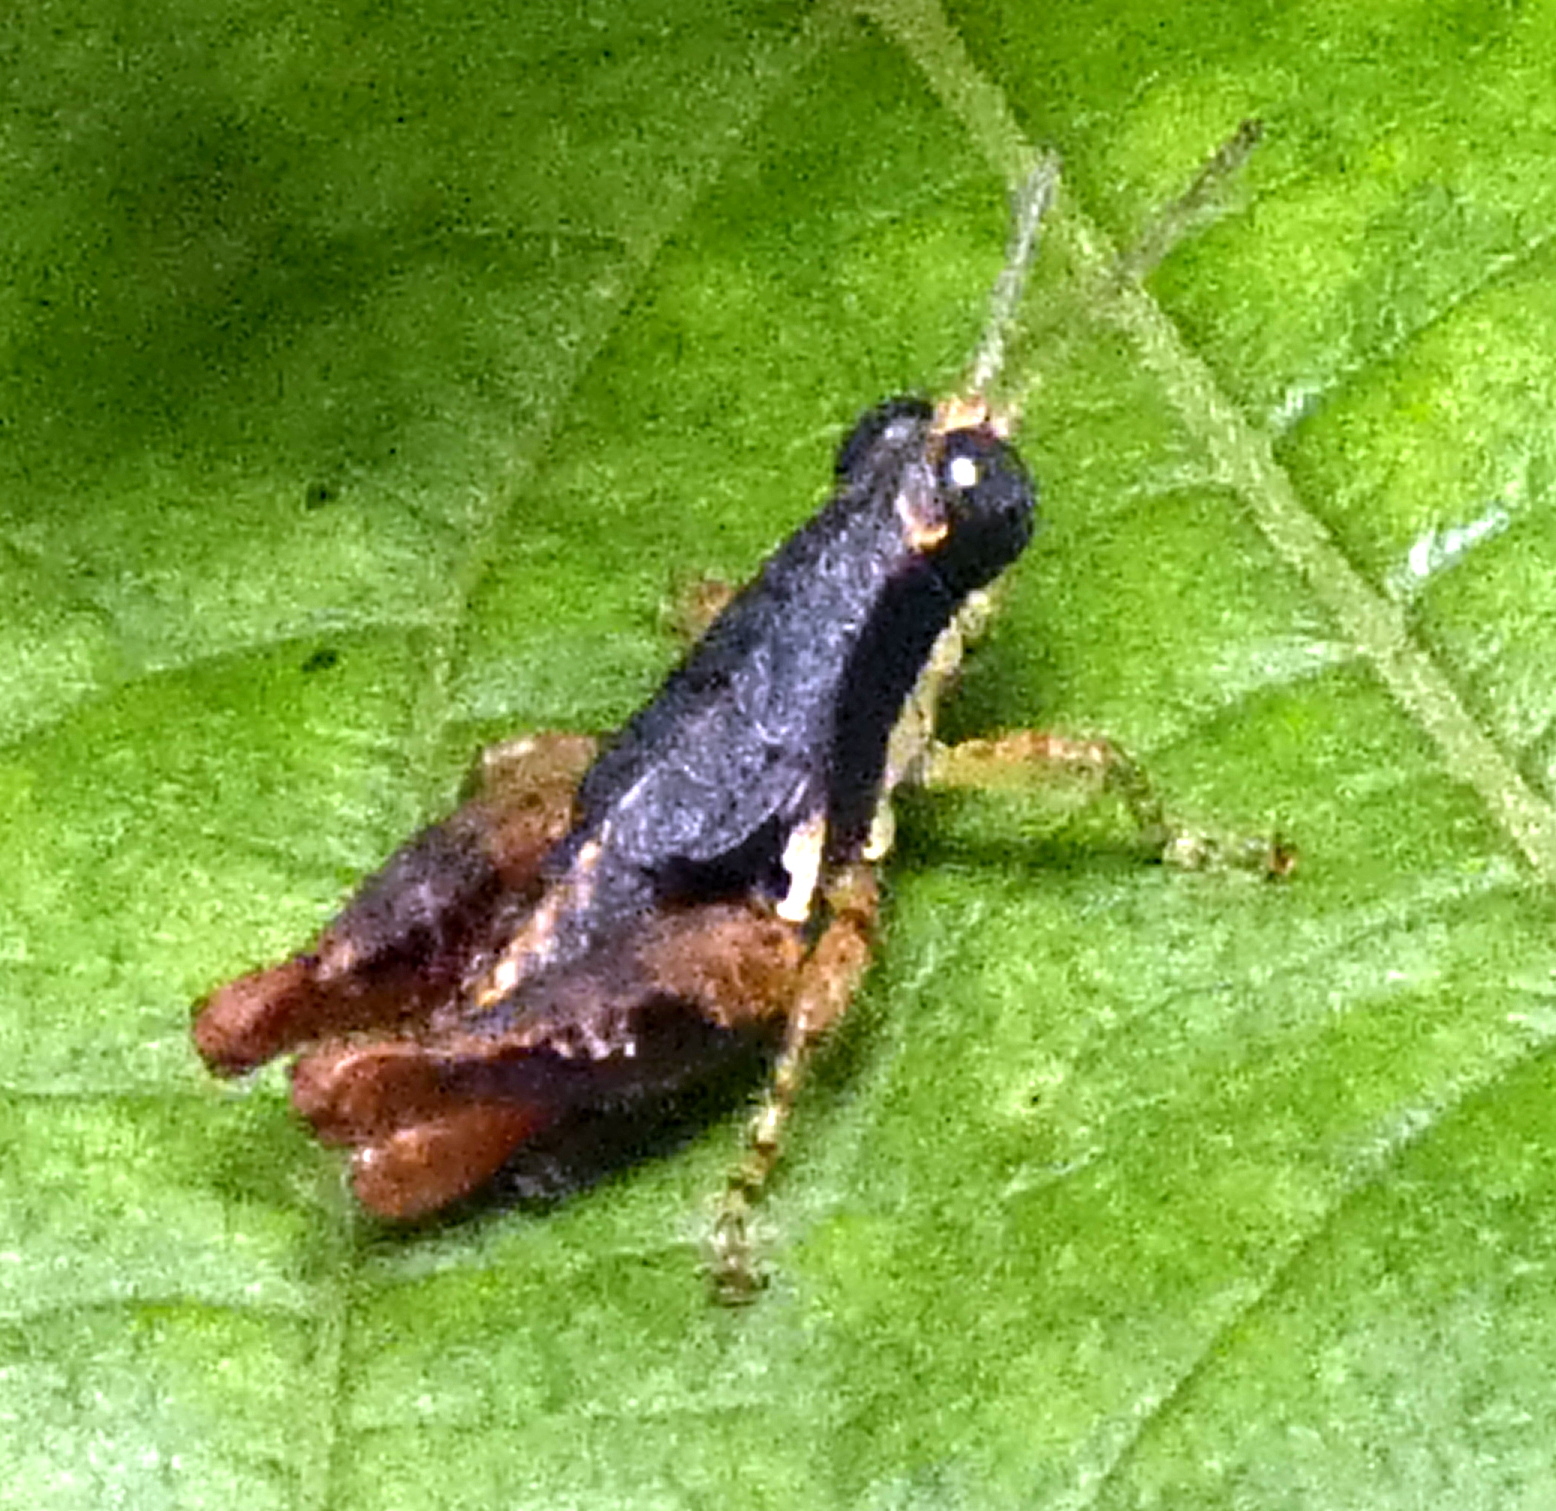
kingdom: Animalia
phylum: Arthropoda
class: Insecta
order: Orthoptera
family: Acrididae
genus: Eujivarus
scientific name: Eujivarus meridionalis
